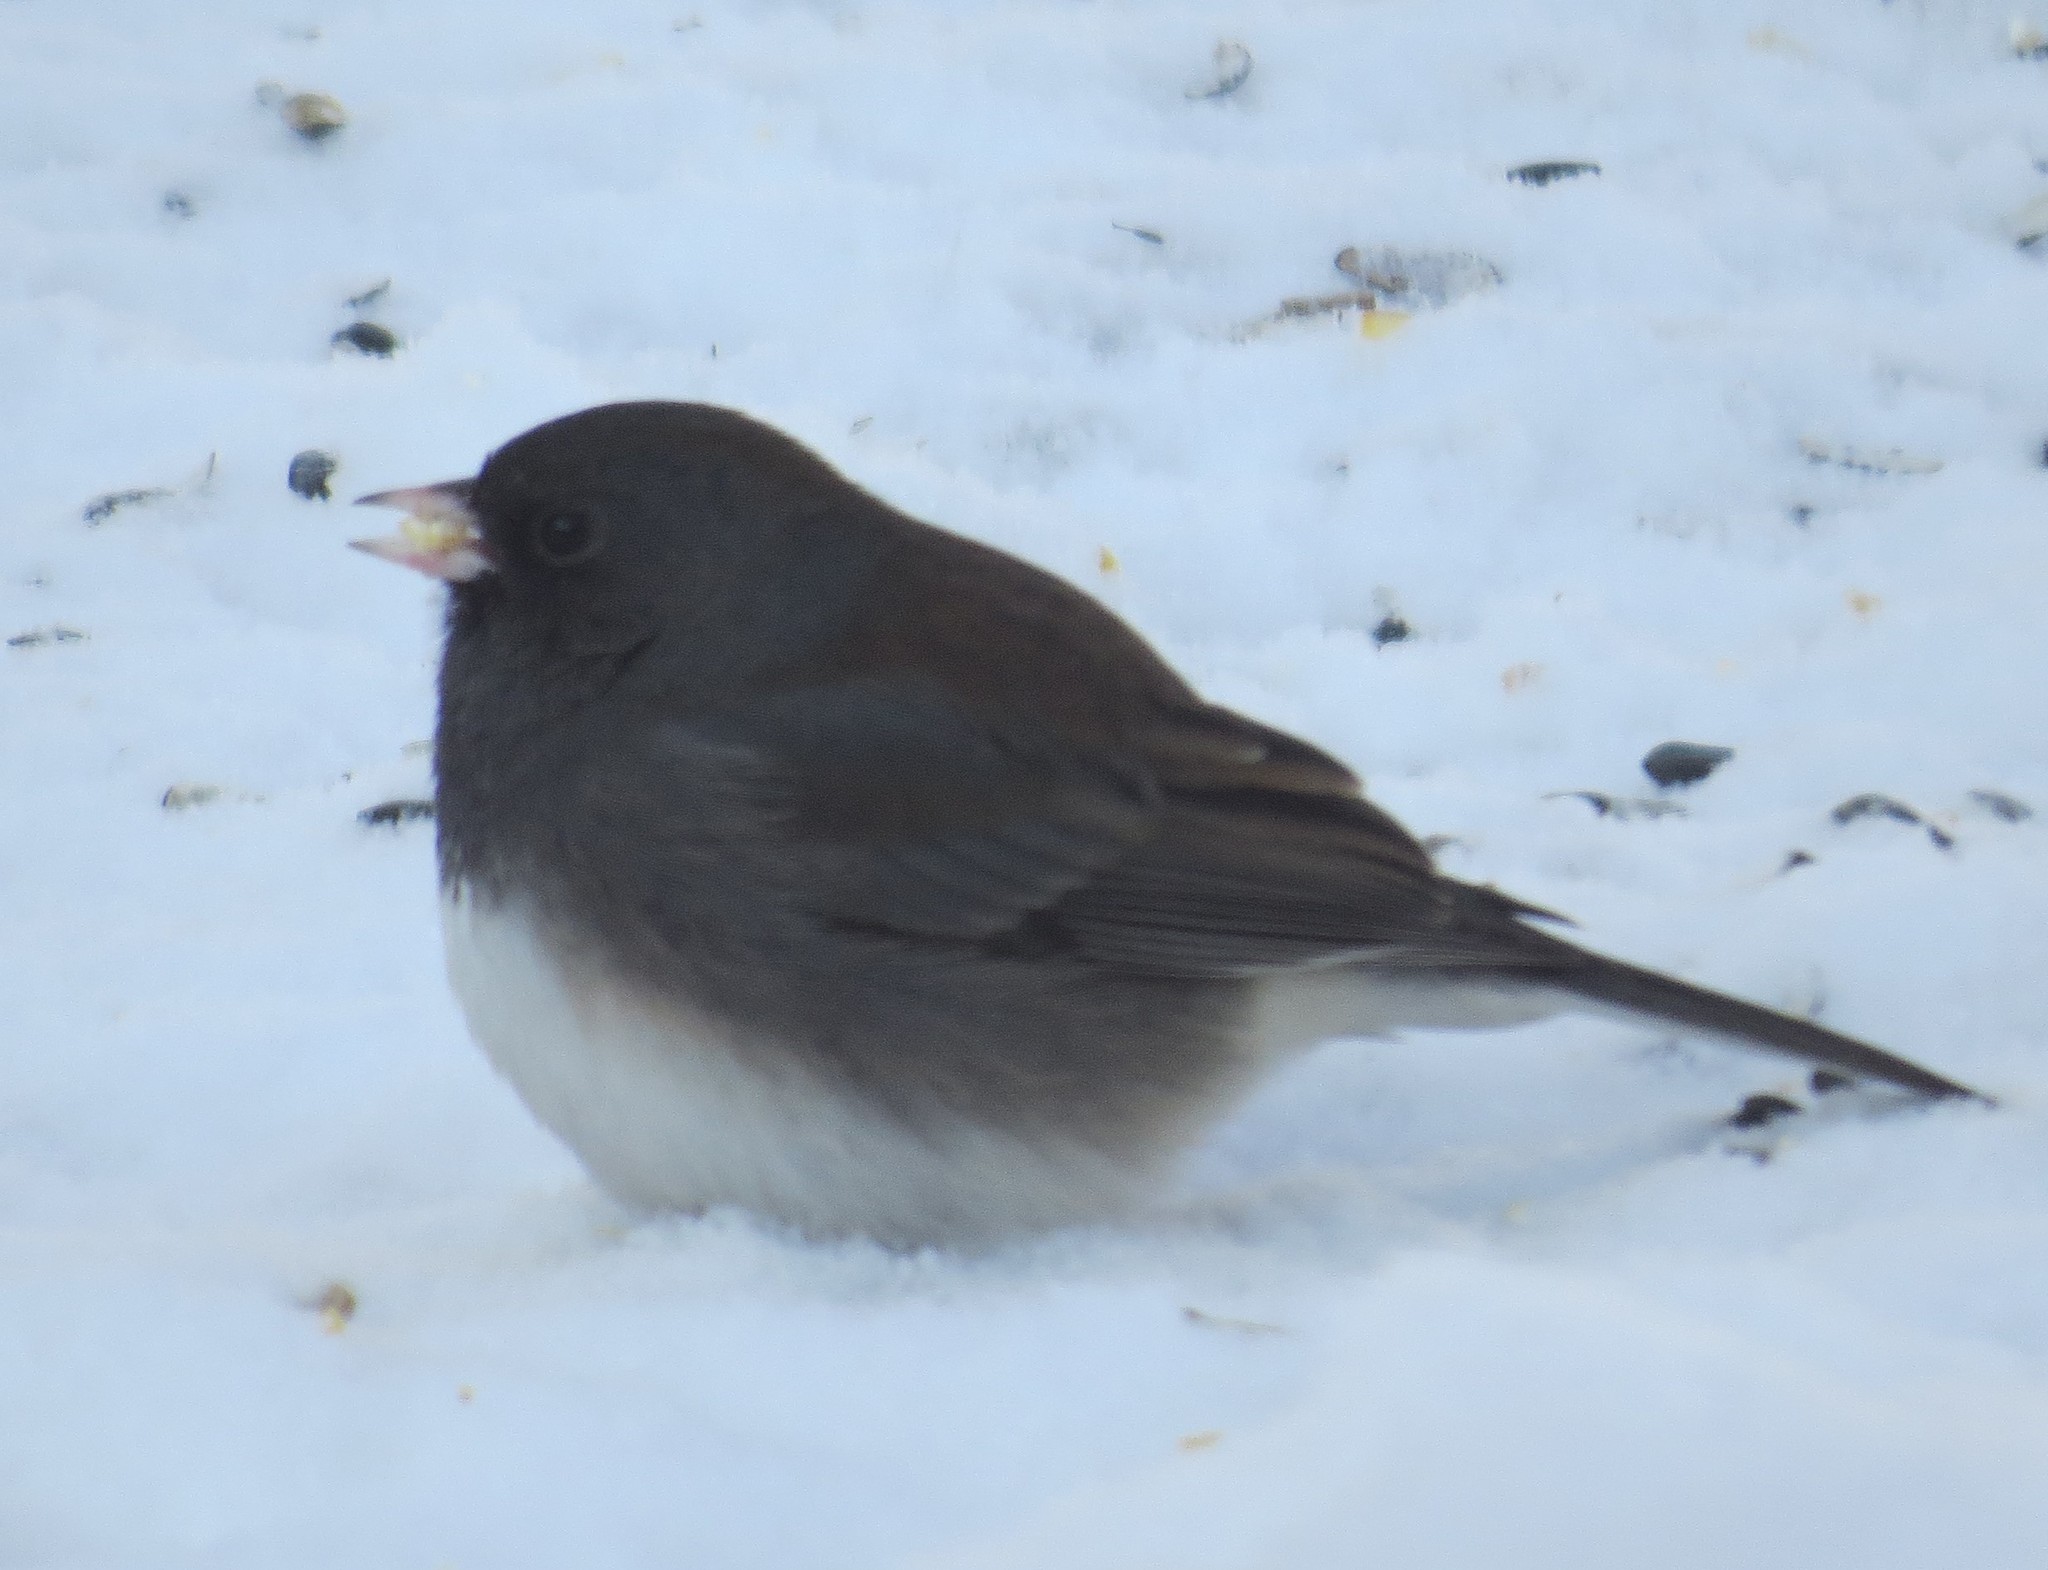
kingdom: Animalia
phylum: Chordata
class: Aves
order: Passeriformes
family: Passerellidae
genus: Junco
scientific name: Junco hyemalis
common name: Dark-eyed junco
